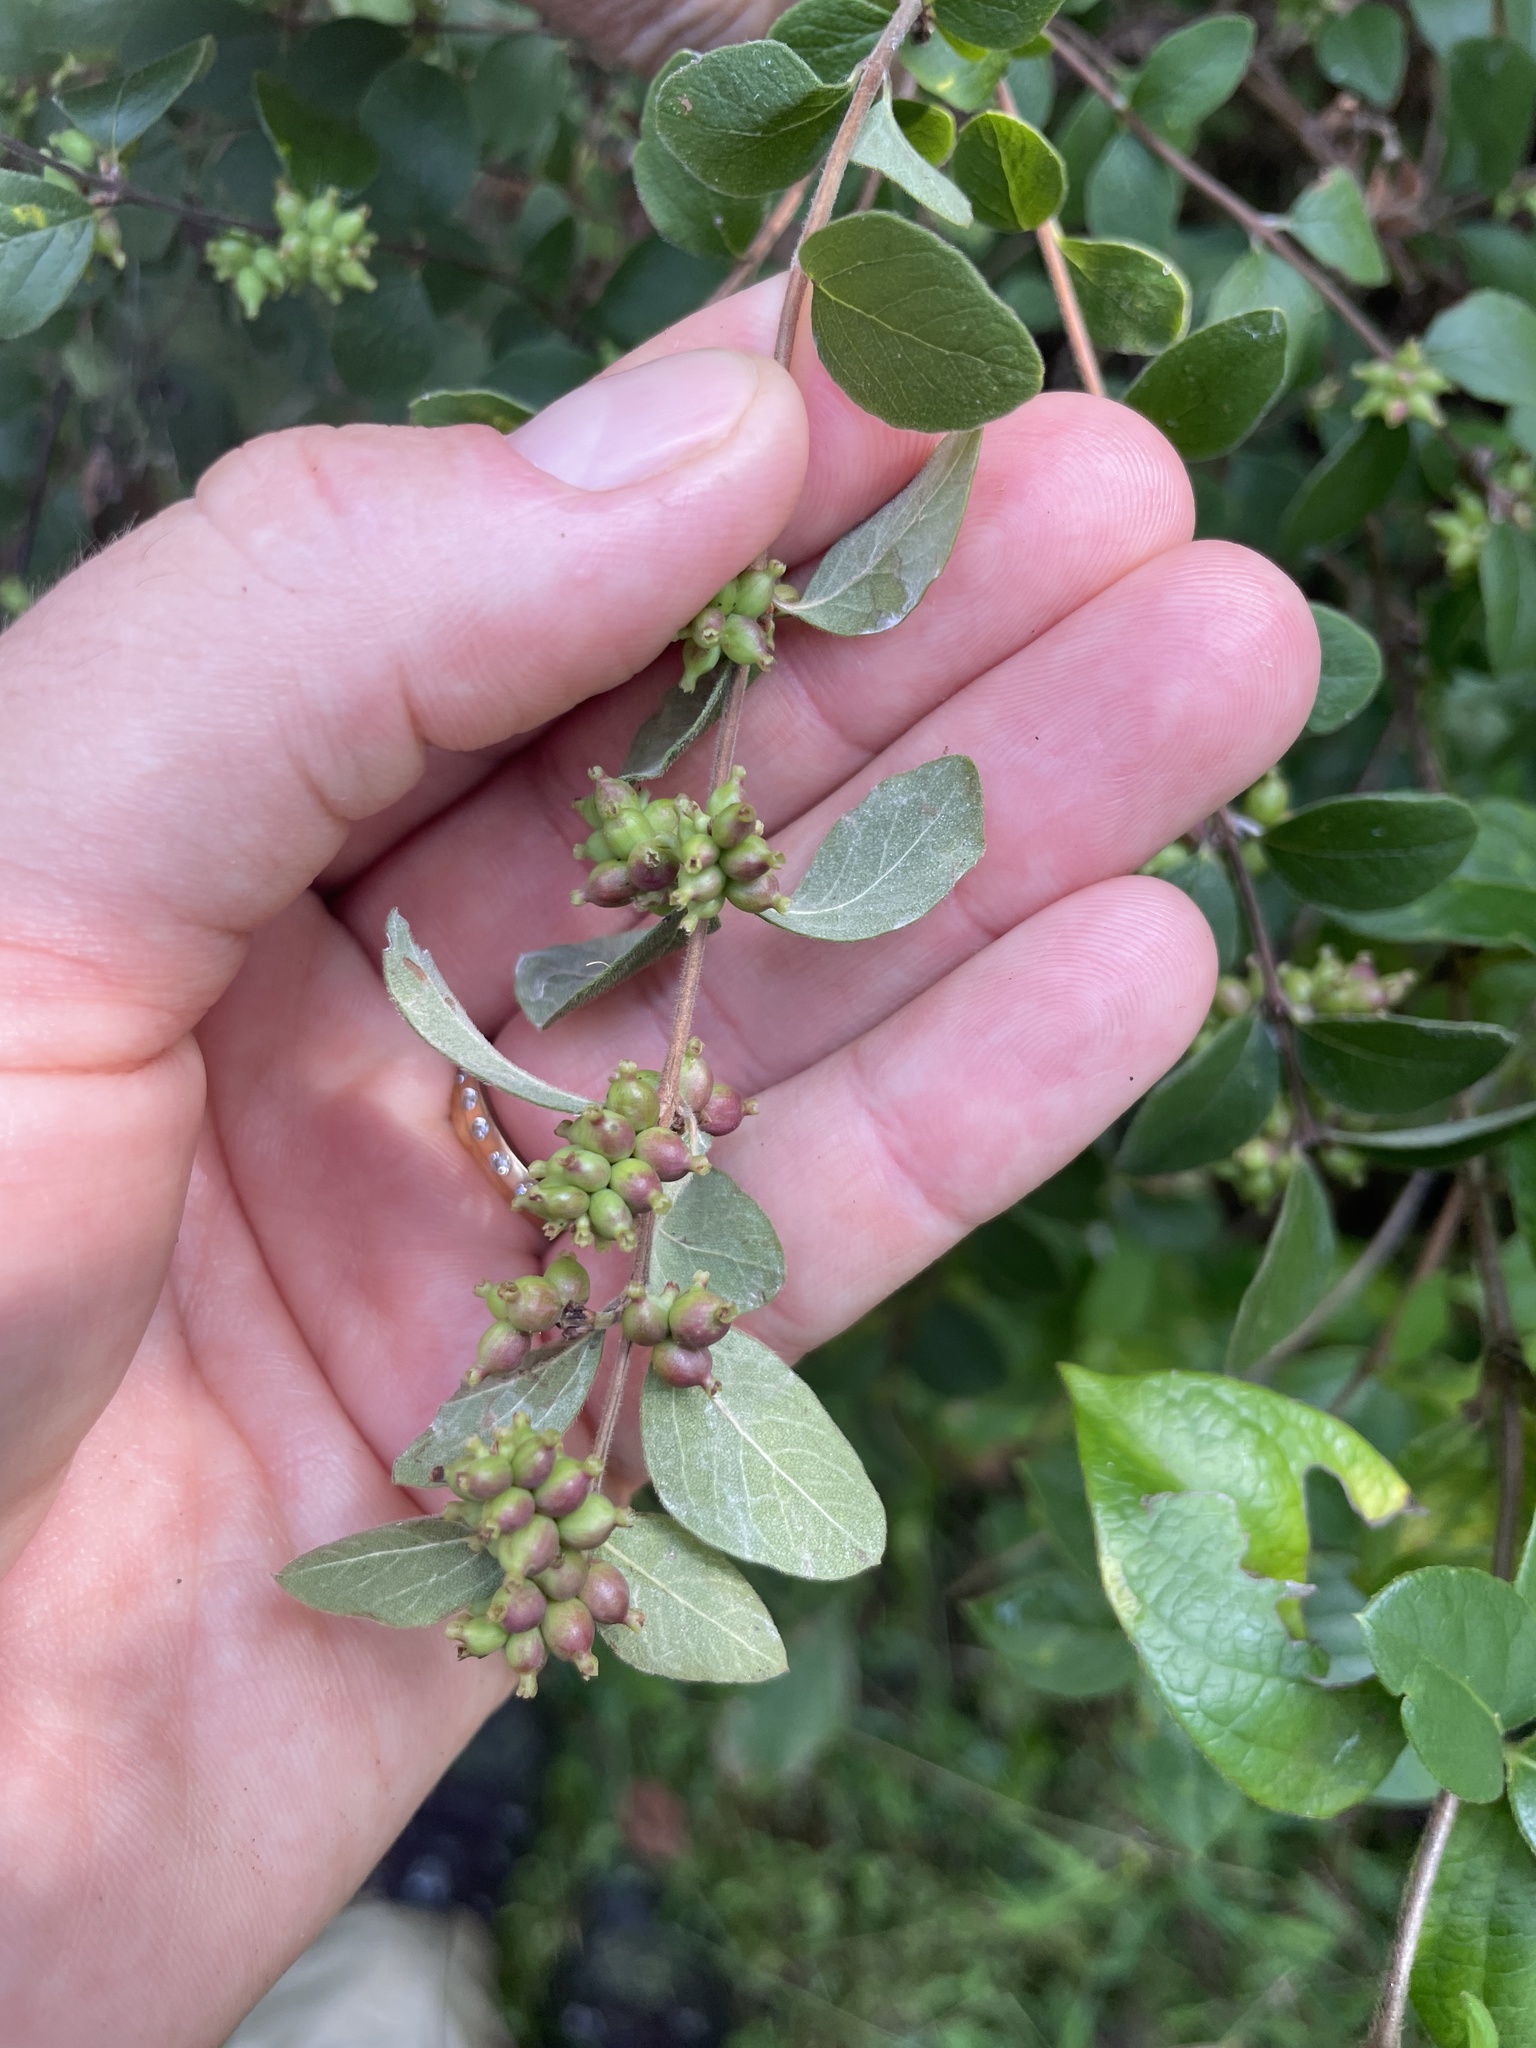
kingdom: Plantae
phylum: Tracheophyta
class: Magnoliopsida
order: Dipsacales
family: Caprifoliaceae
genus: Symphoricarpos
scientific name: Symphoricarpos orbiculatus
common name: Coralberry
